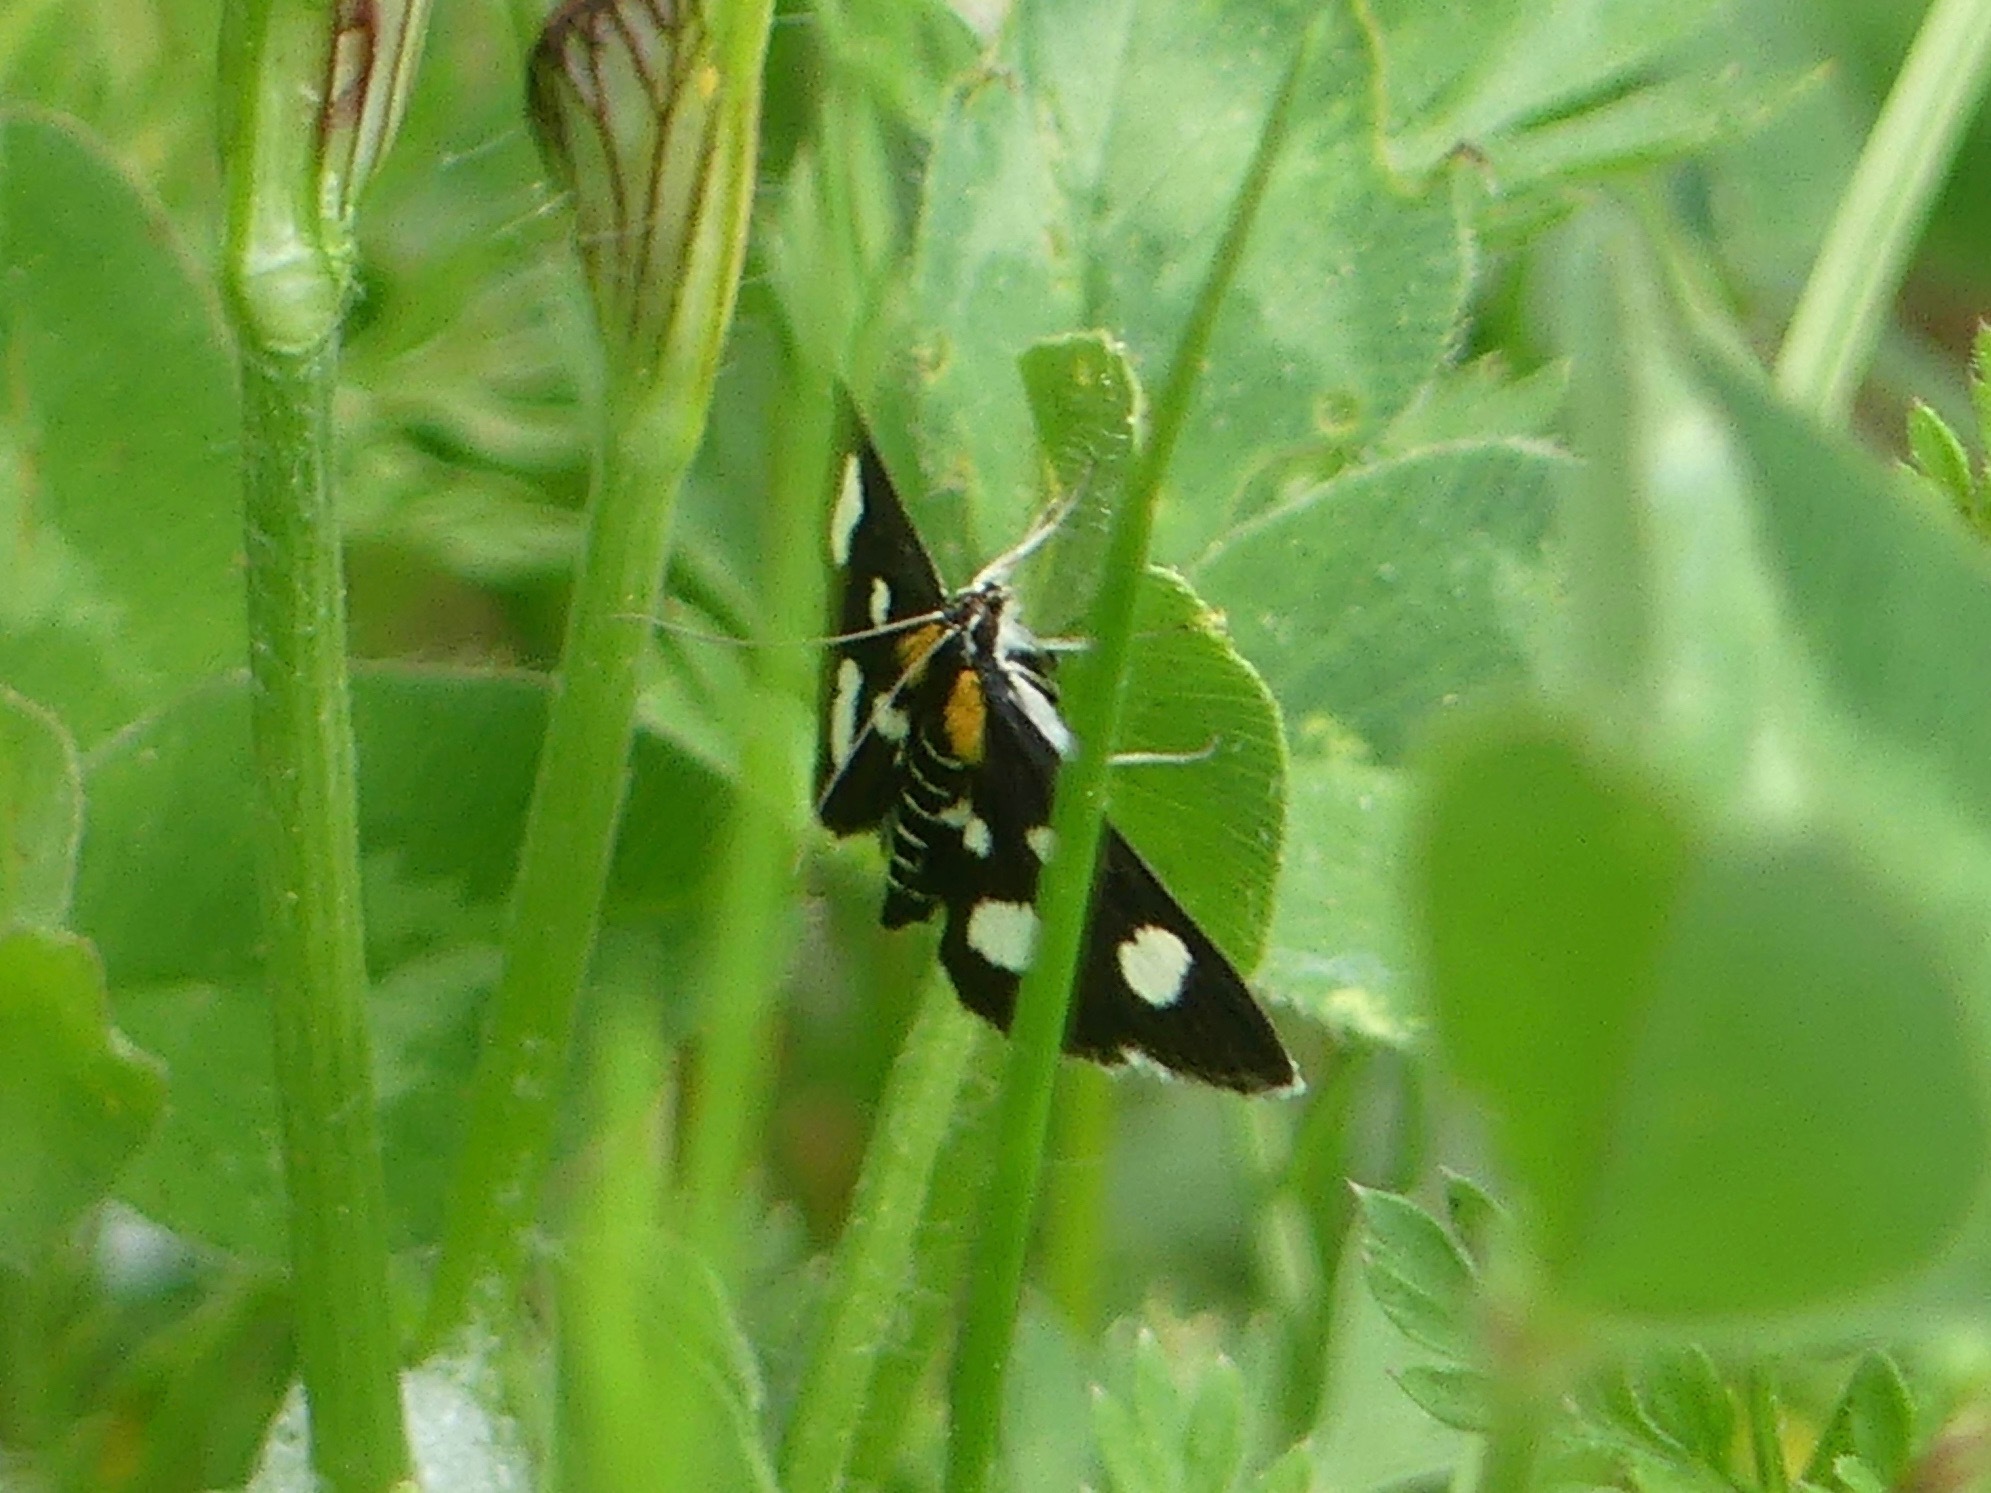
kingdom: Animalia
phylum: Arthropoda
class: Insecta
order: Lepidoptera
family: Crambidae
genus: Anania
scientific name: Anania funebris
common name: White-spotted sable moth
